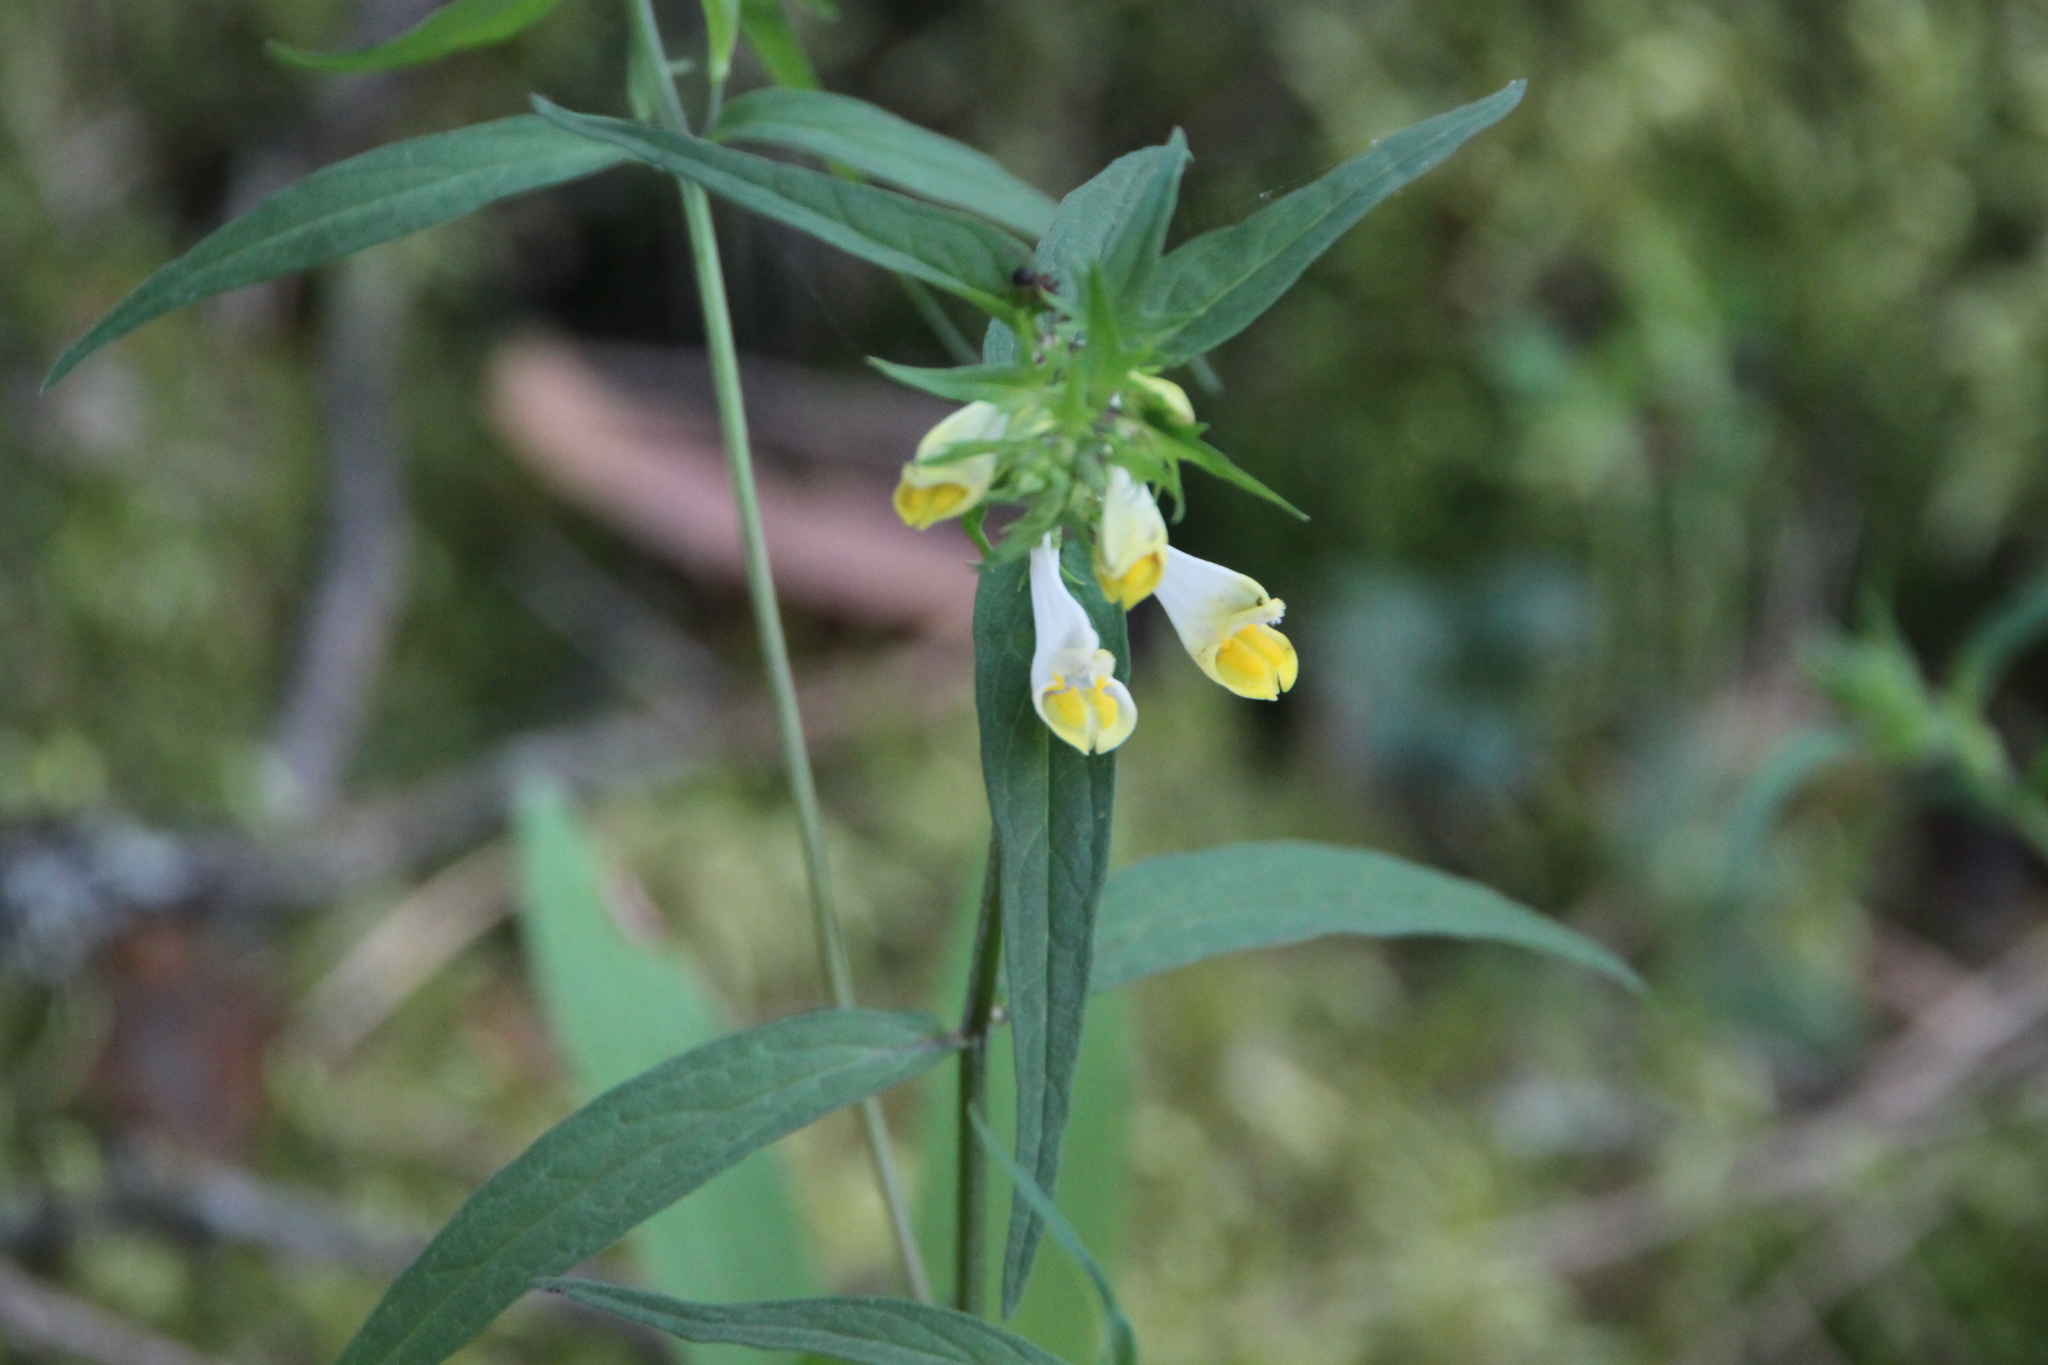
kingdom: Plantae
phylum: Tracheophyta
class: Magnoliopsida
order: Lamiales
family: Orobanchaceae
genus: Melampyrum
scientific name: Melampyrum pratense
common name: Common cow-wheat
